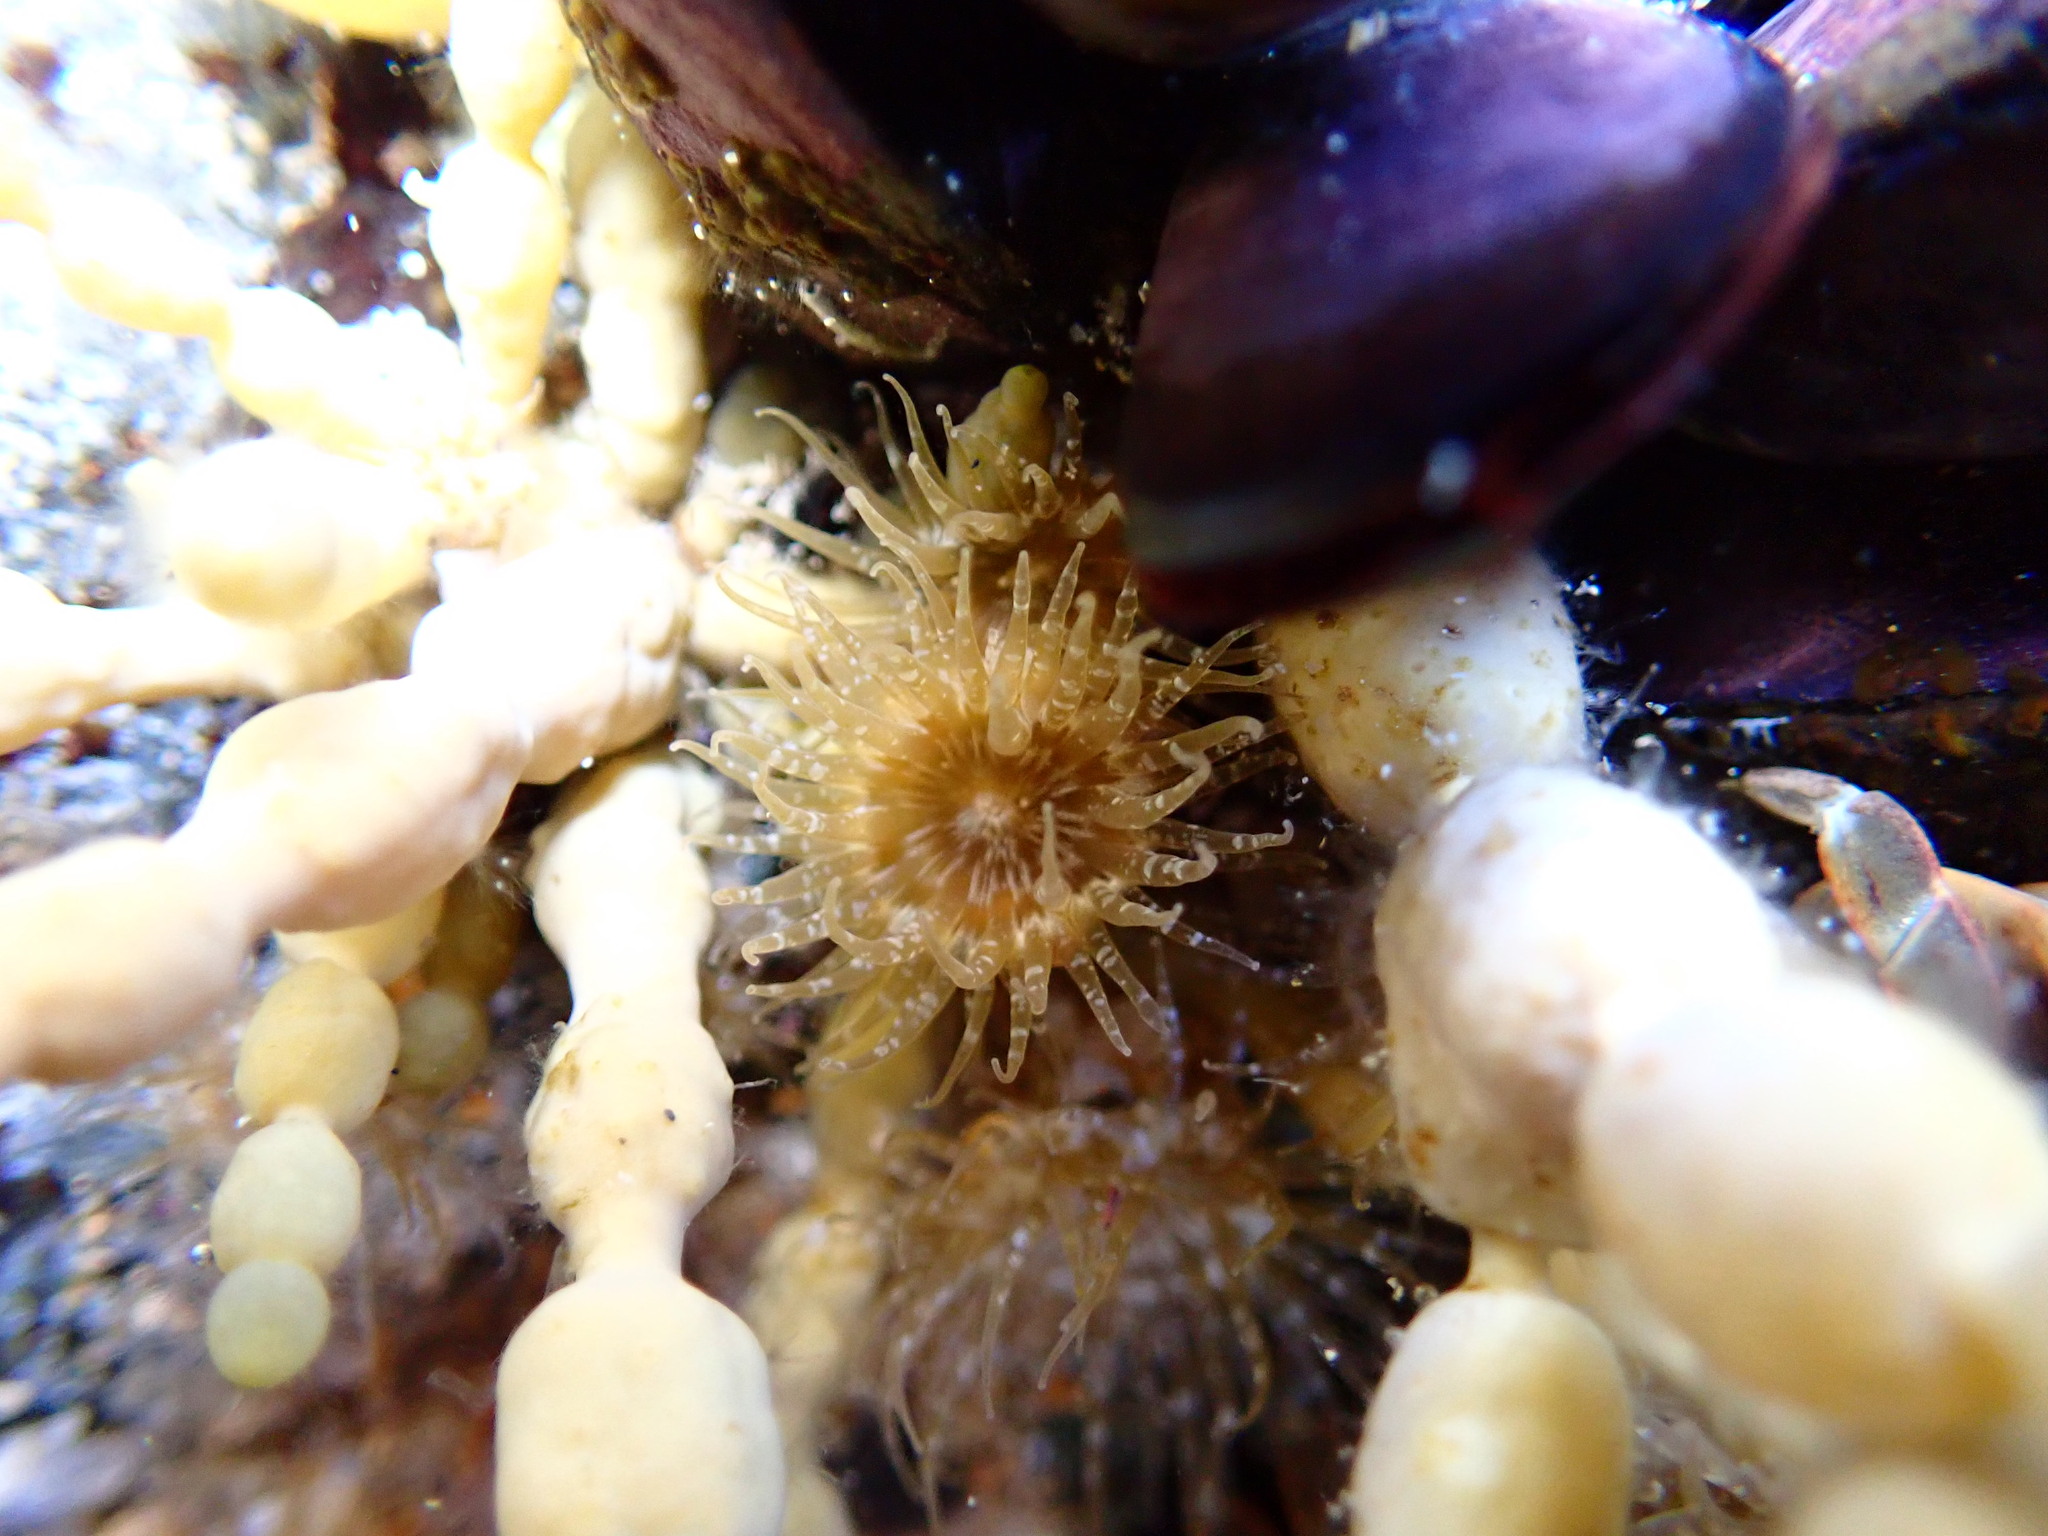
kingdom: Animalia
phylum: Cnidaria
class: Anthozoa
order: Actiniaria
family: Actiniidae
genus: Anthopleura
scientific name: Anthopleura hermaphroditica
